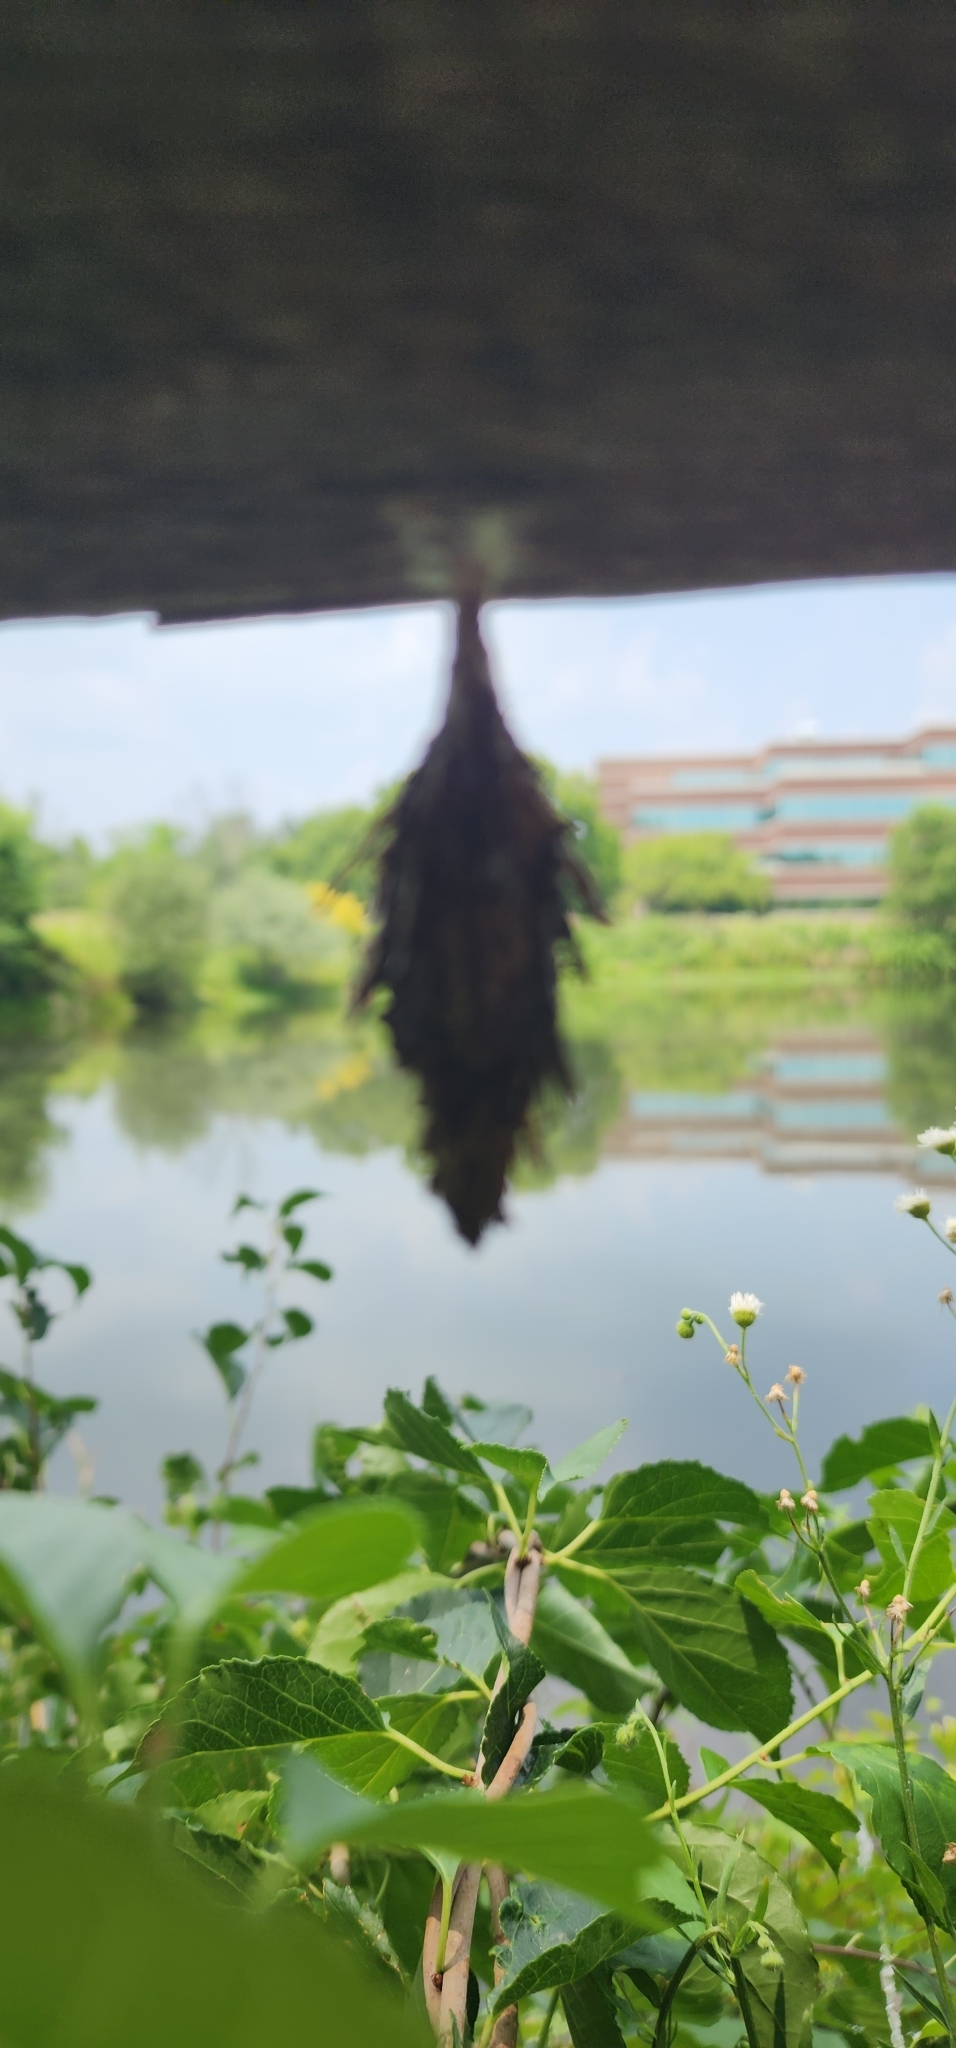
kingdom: Animalia
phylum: Arthropoda
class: Insecta
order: Lepidoptera
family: Psychidae
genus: Thyridopteryx
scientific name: Thyridopteryx ephemeraeformis
